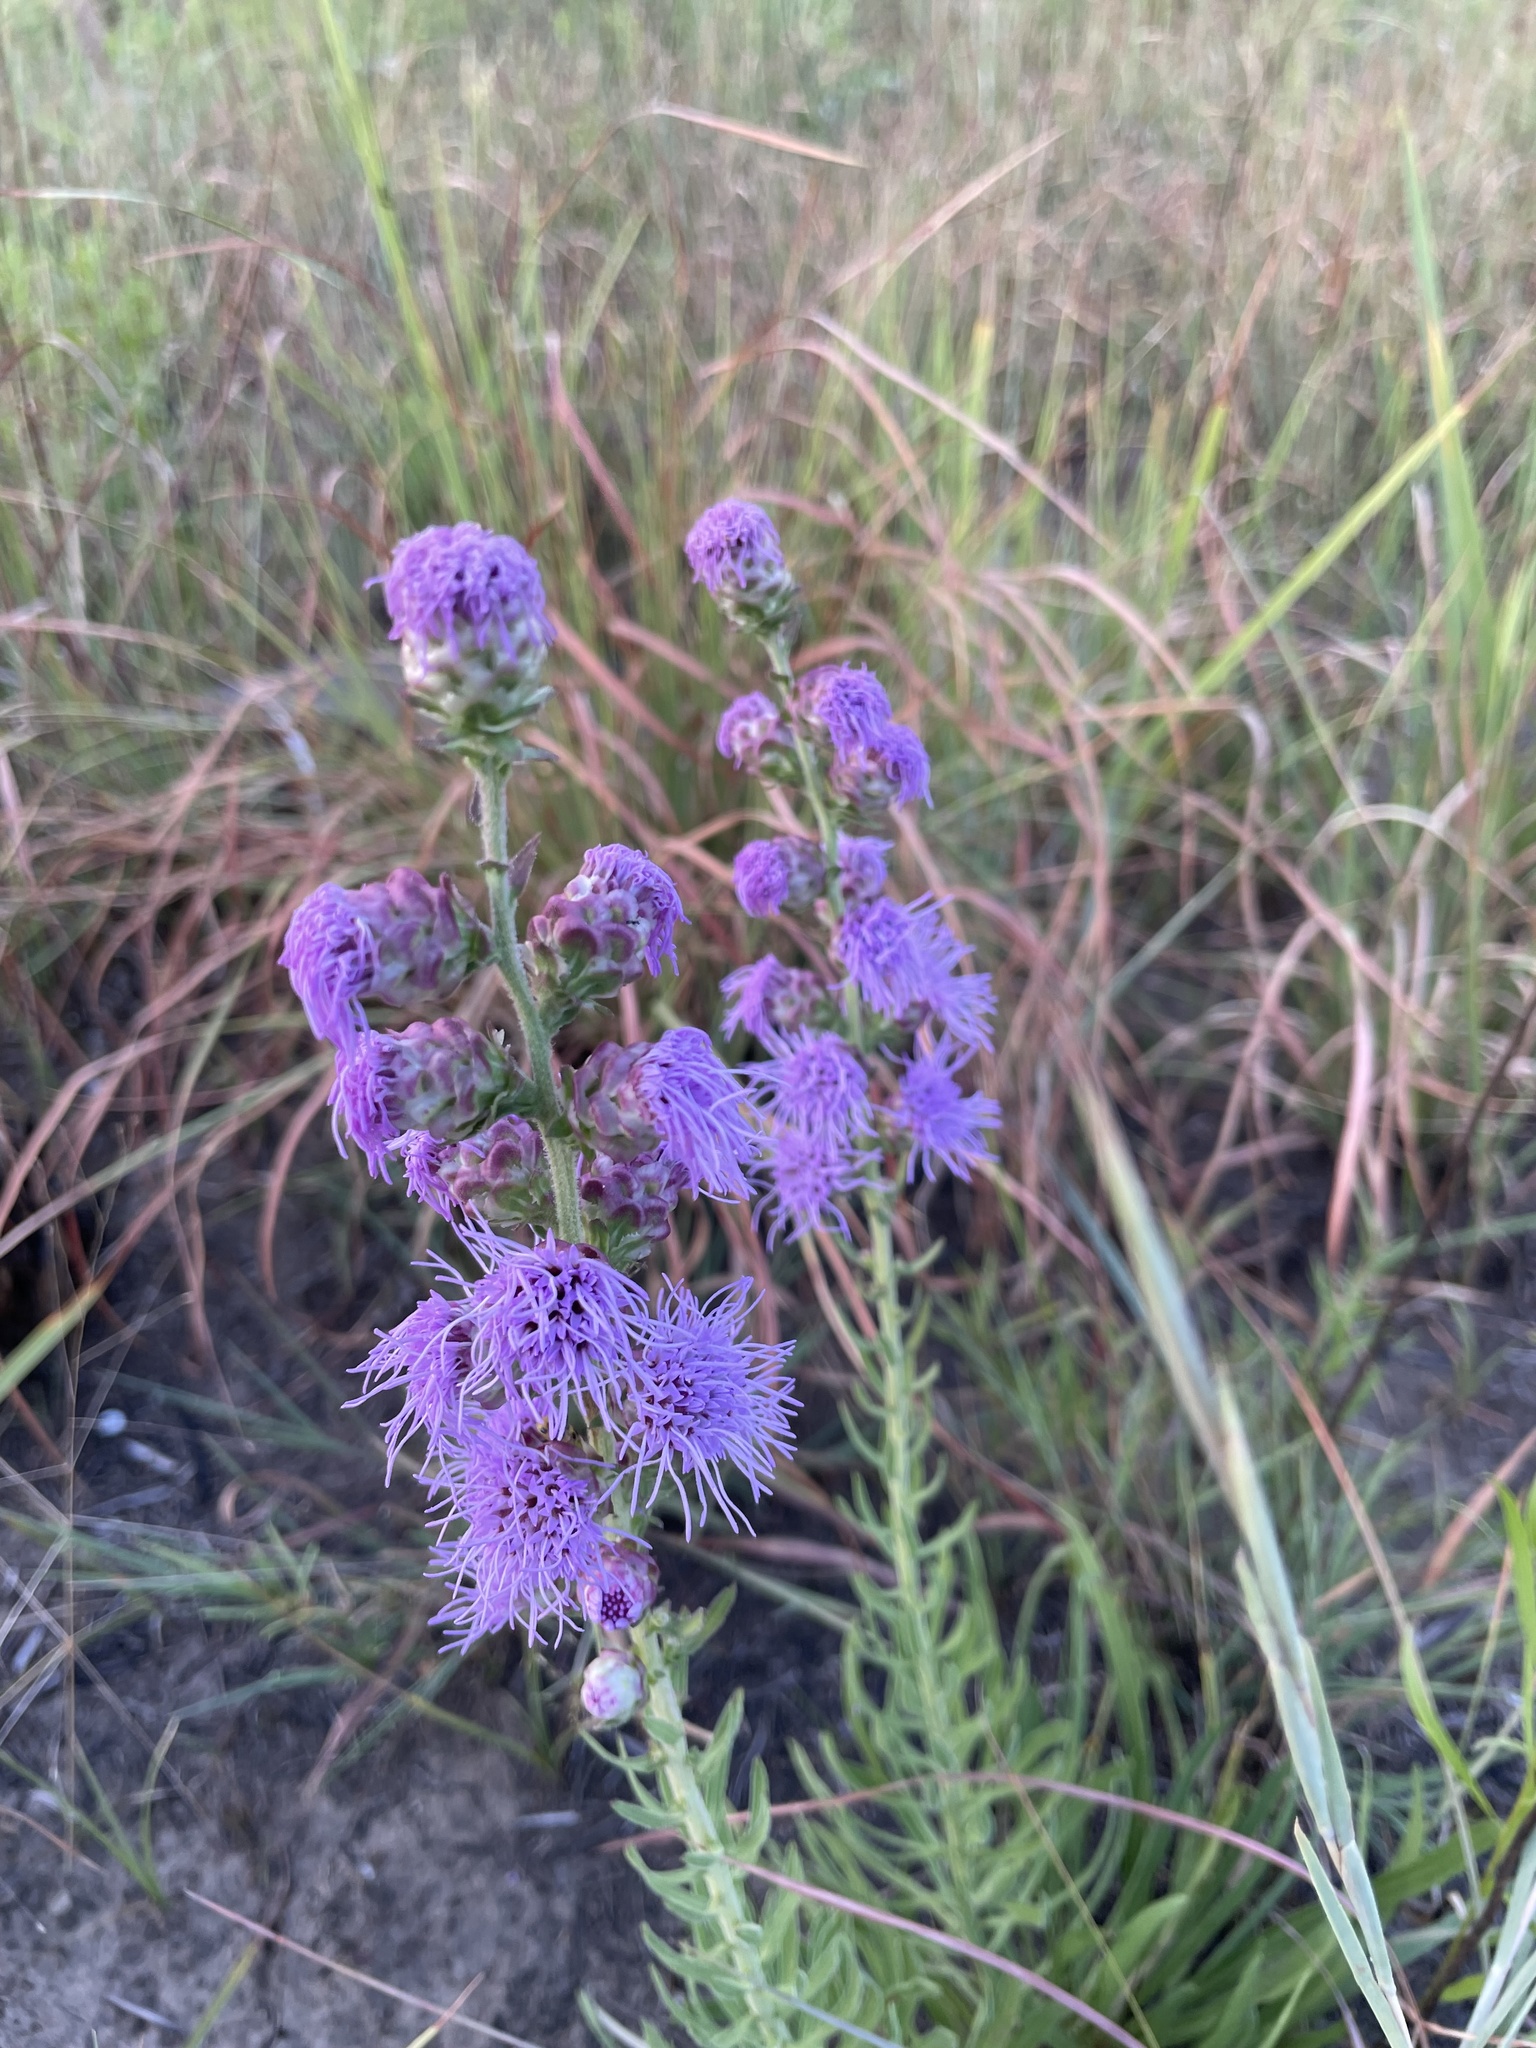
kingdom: Plantae
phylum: Tracheophyta
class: Magnoliopsida
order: Asterales
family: Asteraceae
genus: Liatris
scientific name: Liatris aspera
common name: Lacerate blazing-star
